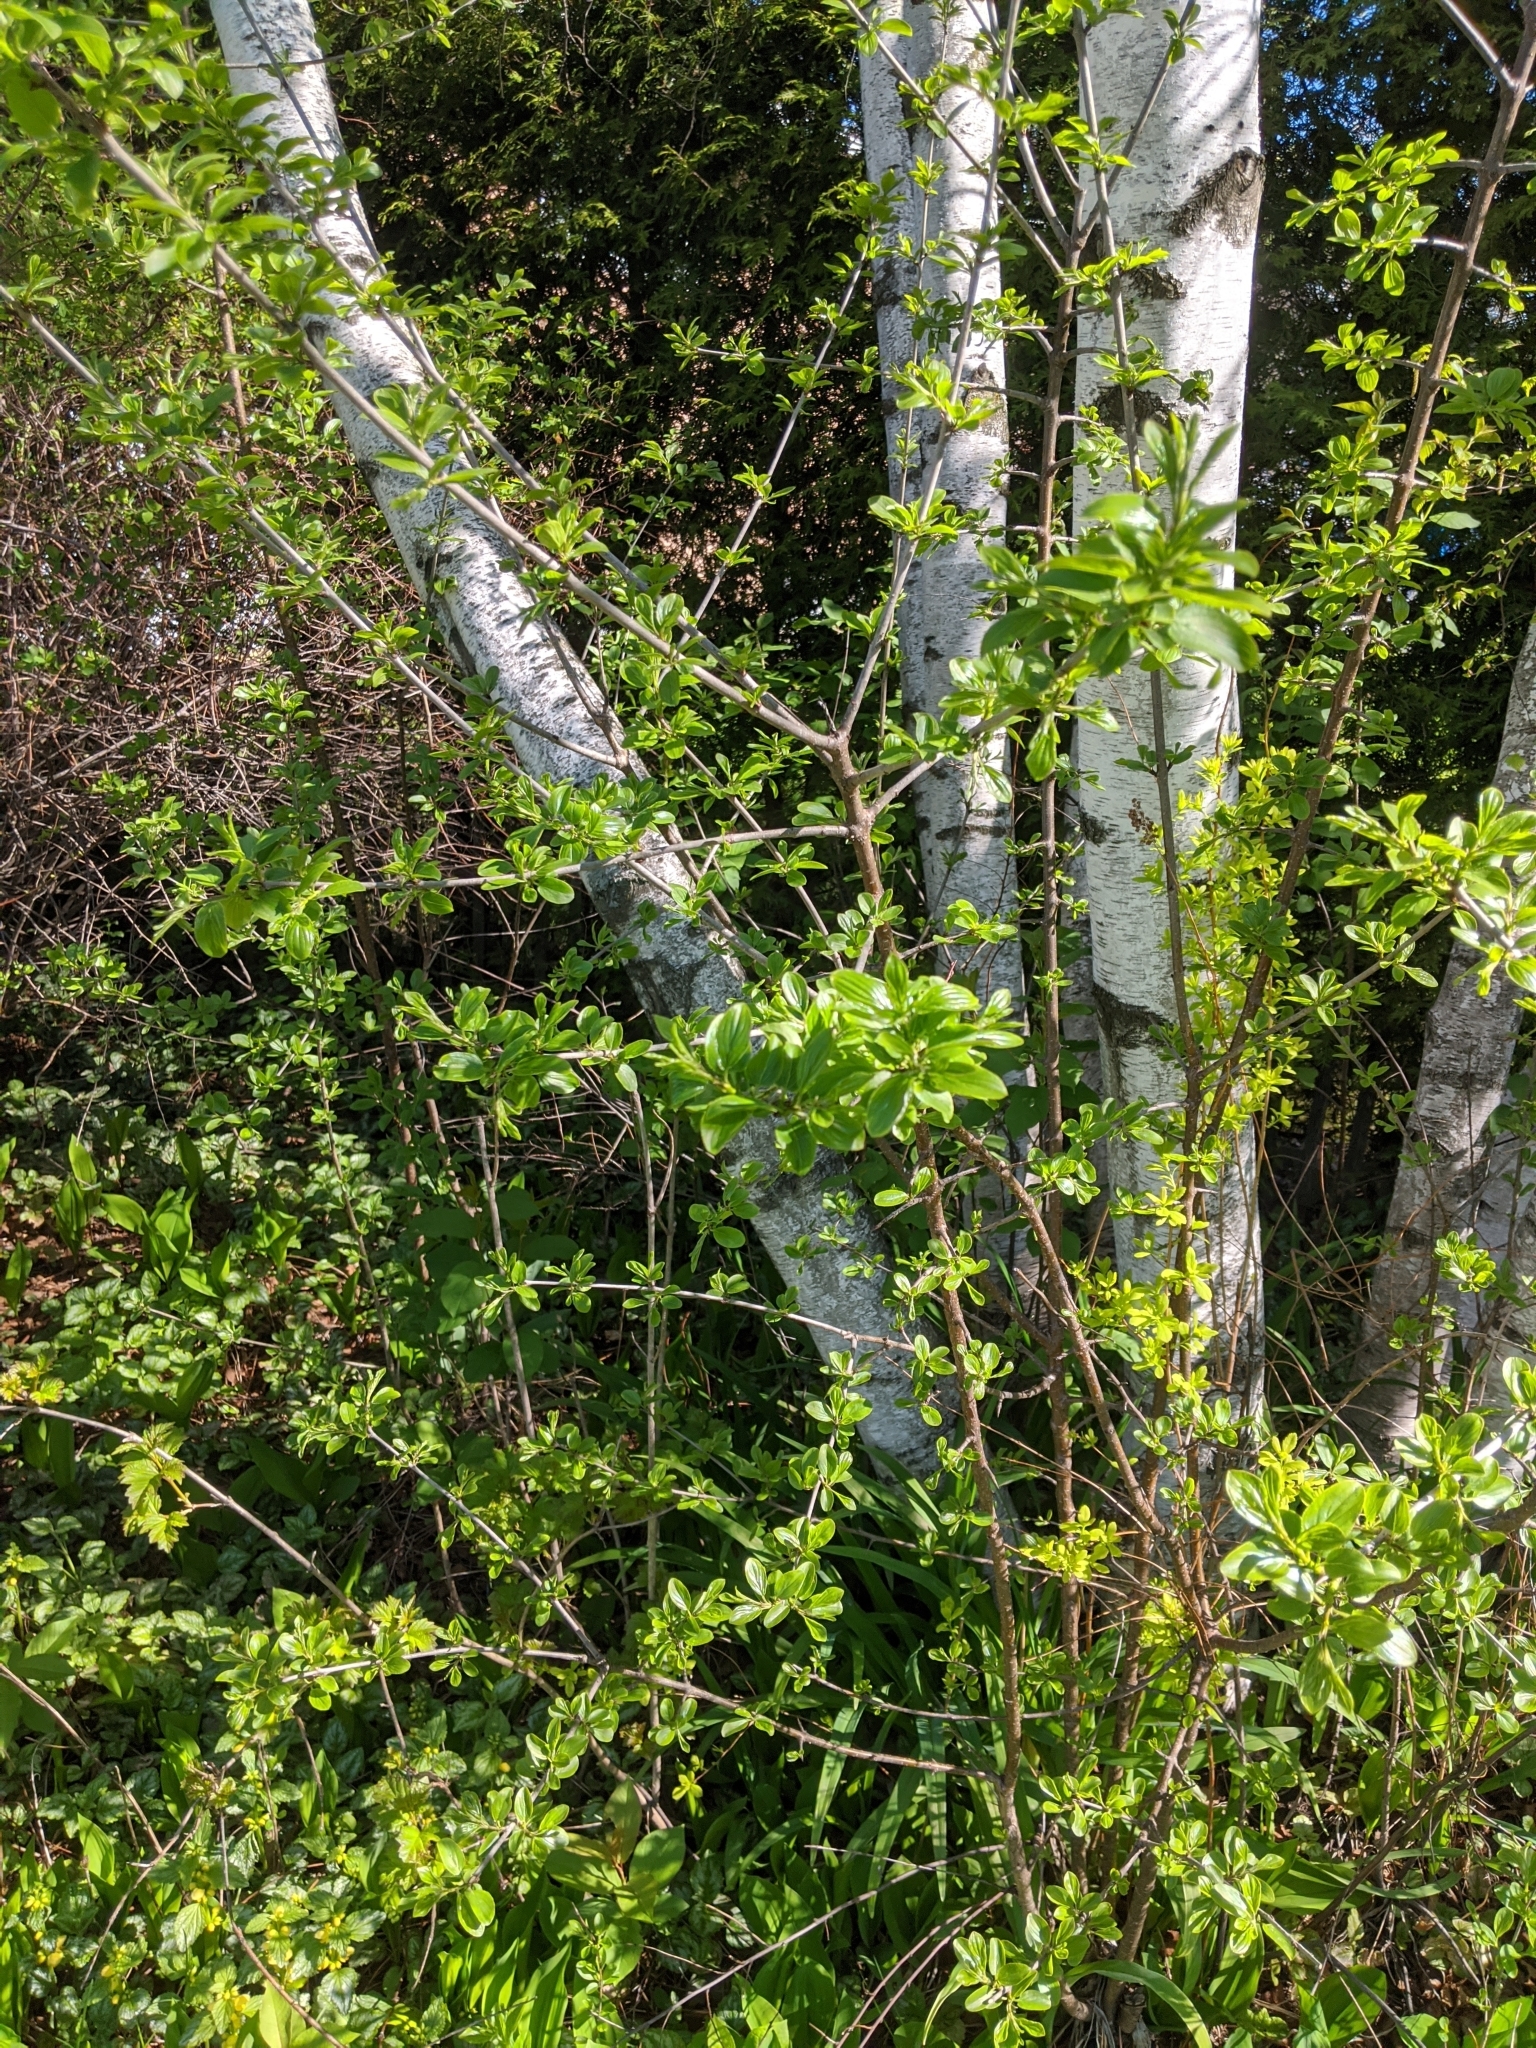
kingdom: Plantae
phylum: Tracheophyta
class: Magnoliopsida
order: Rosales
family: Rhamnaceae
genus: Rhamnus
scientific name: Rhamnus cathartica
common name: Common buckthorn
